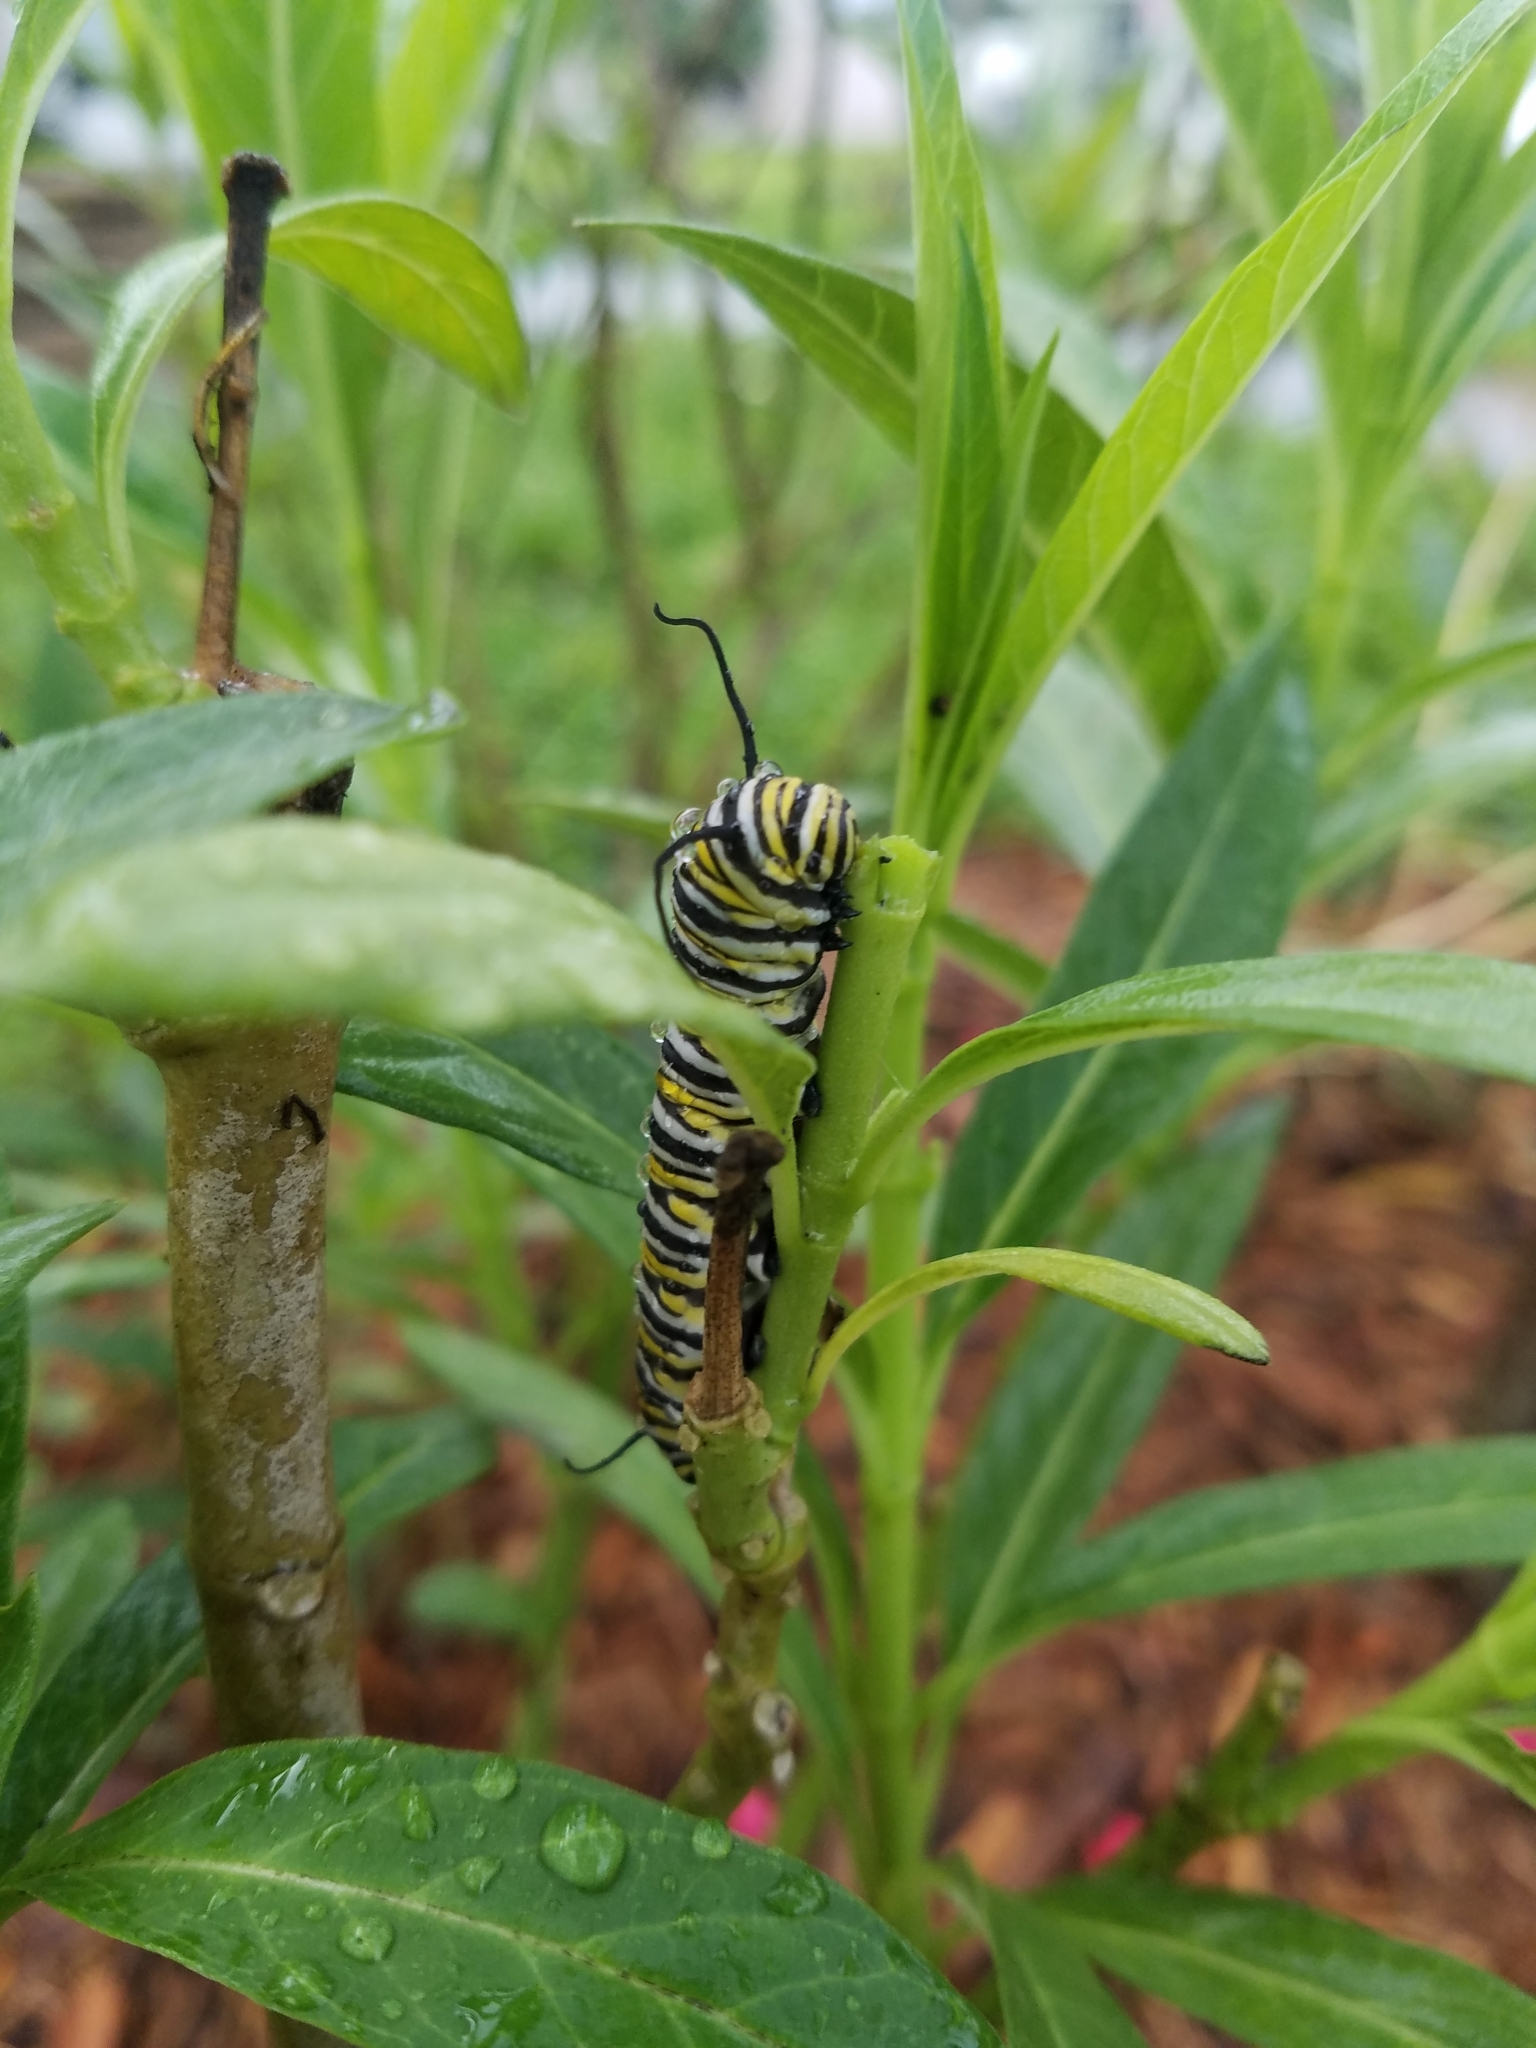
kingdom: Animalia
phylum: Arthropoda
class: Insecta
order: Lepidoptera
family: Nymphalidae
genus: Danaus
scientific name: Danaus plexippus
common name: Monarch
